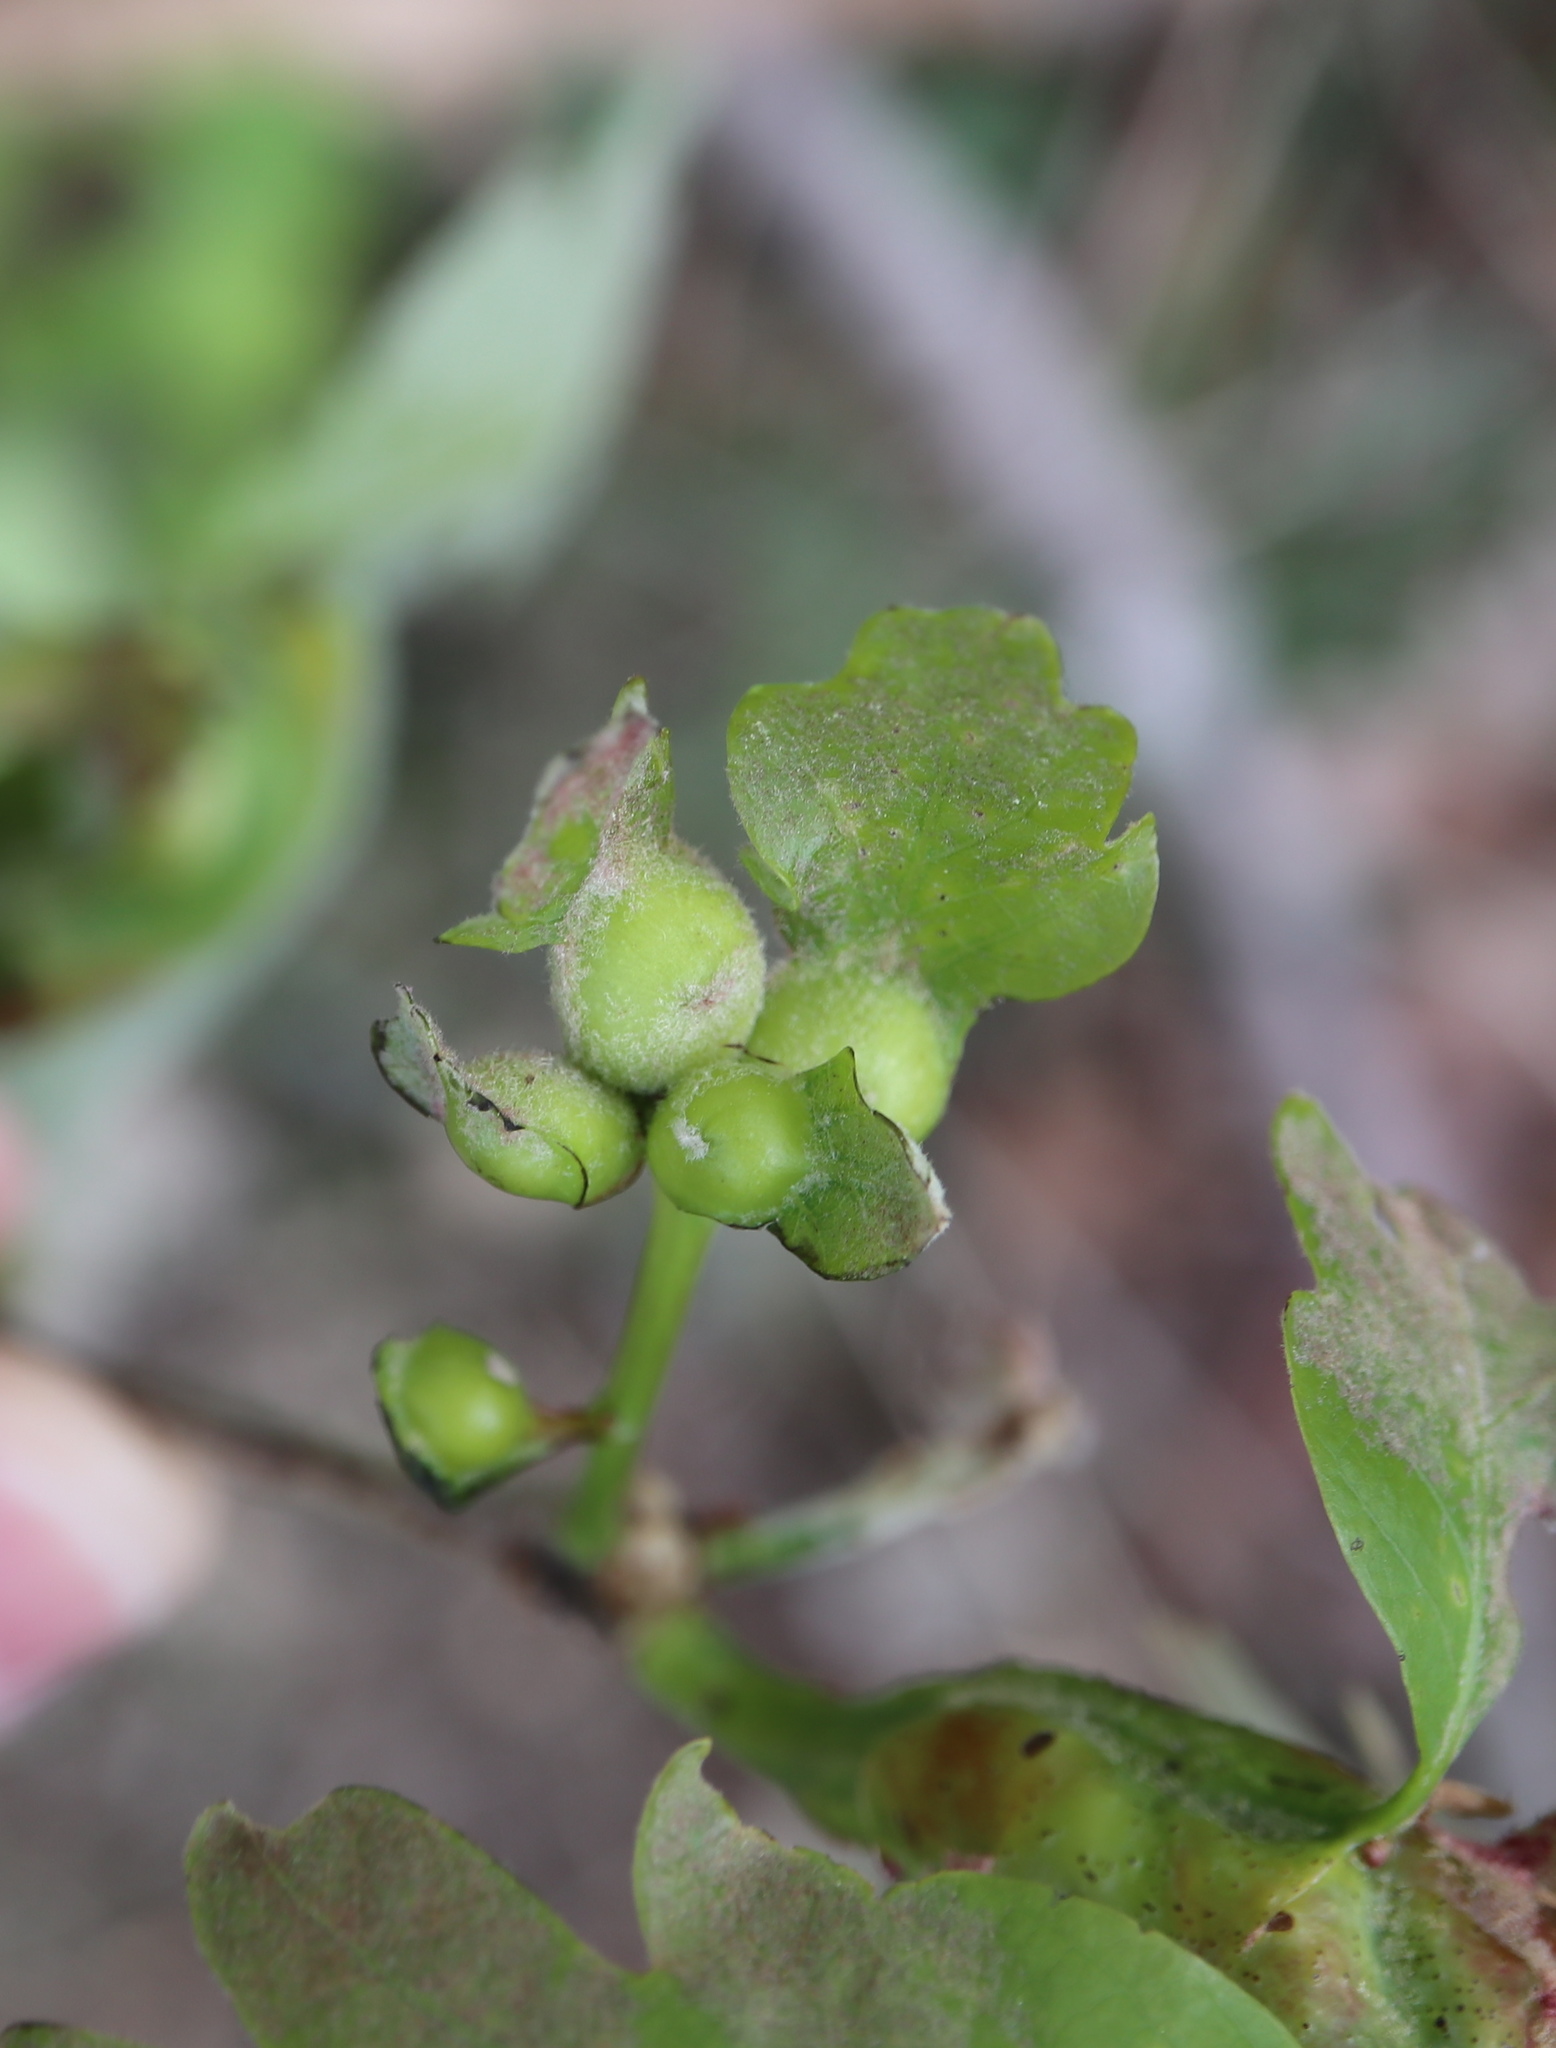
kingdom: Animalia
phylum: Arthropoda
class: Insecta
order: Hymenoptera
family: Cynipidae
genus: Andricus
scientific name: Andricus
